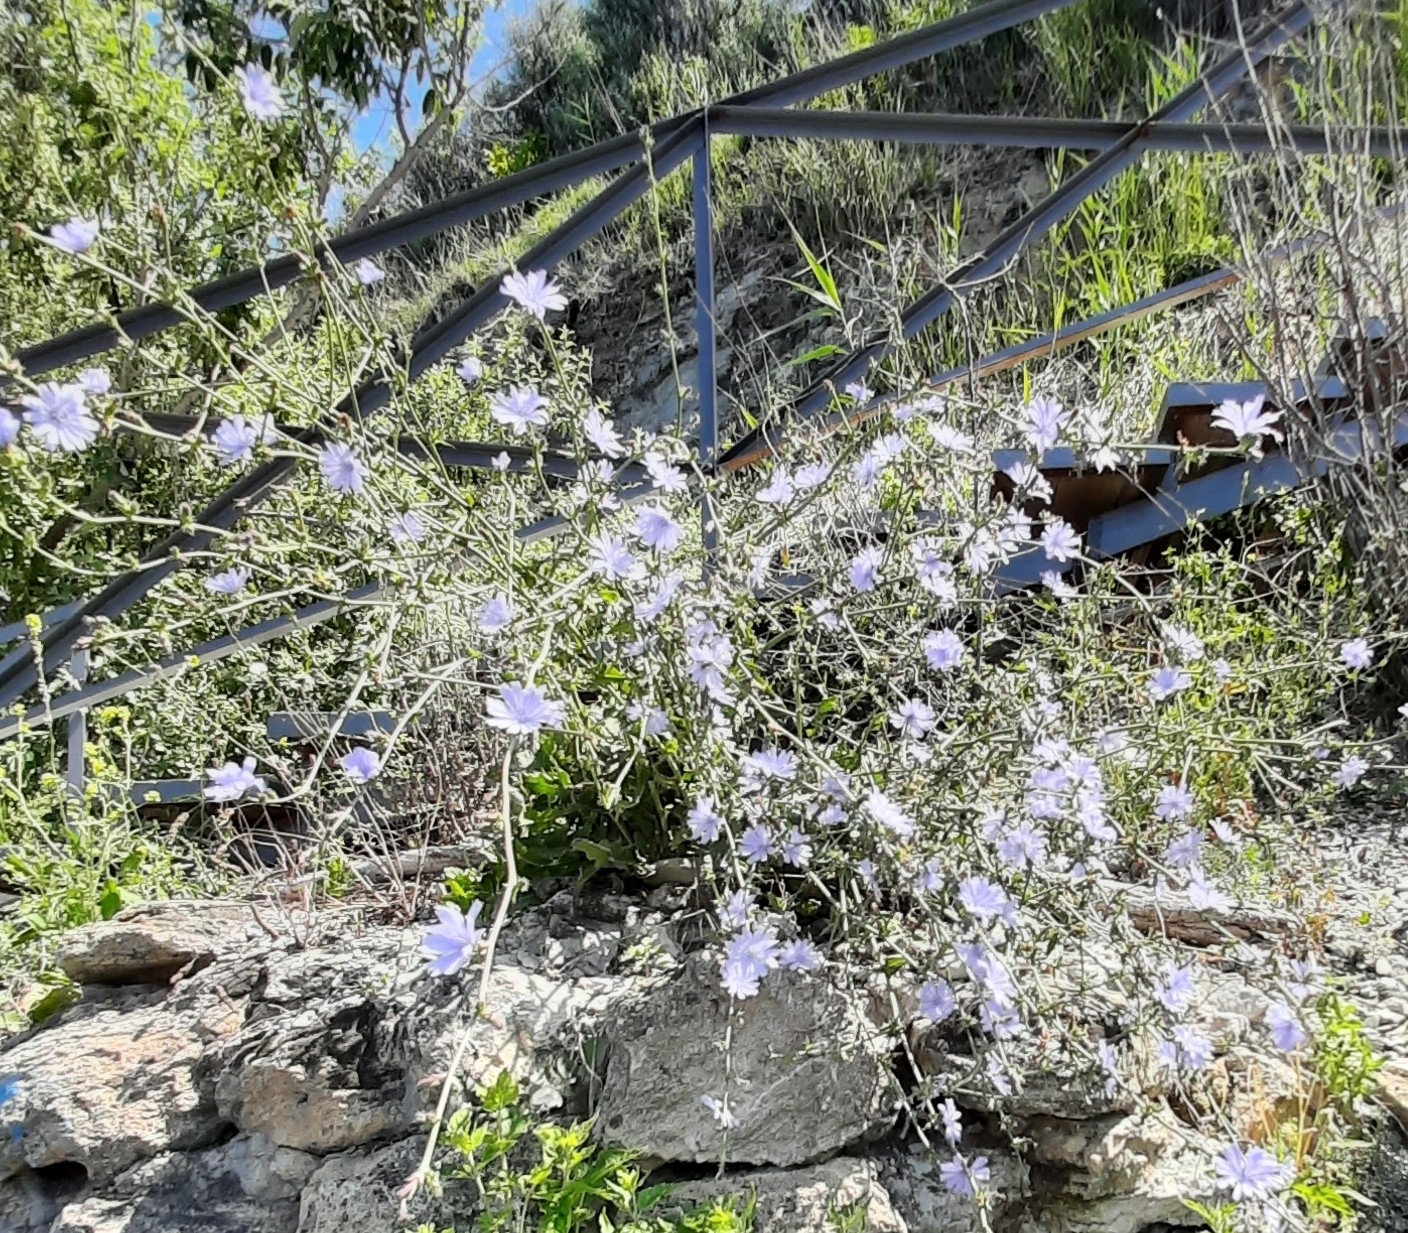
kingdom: Plantae
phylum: Tracheophyta
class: Magnoliopsida
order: Asterales
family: Asteraceae
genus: Cichorium
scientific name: Cichorium intybus
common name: Chicory
